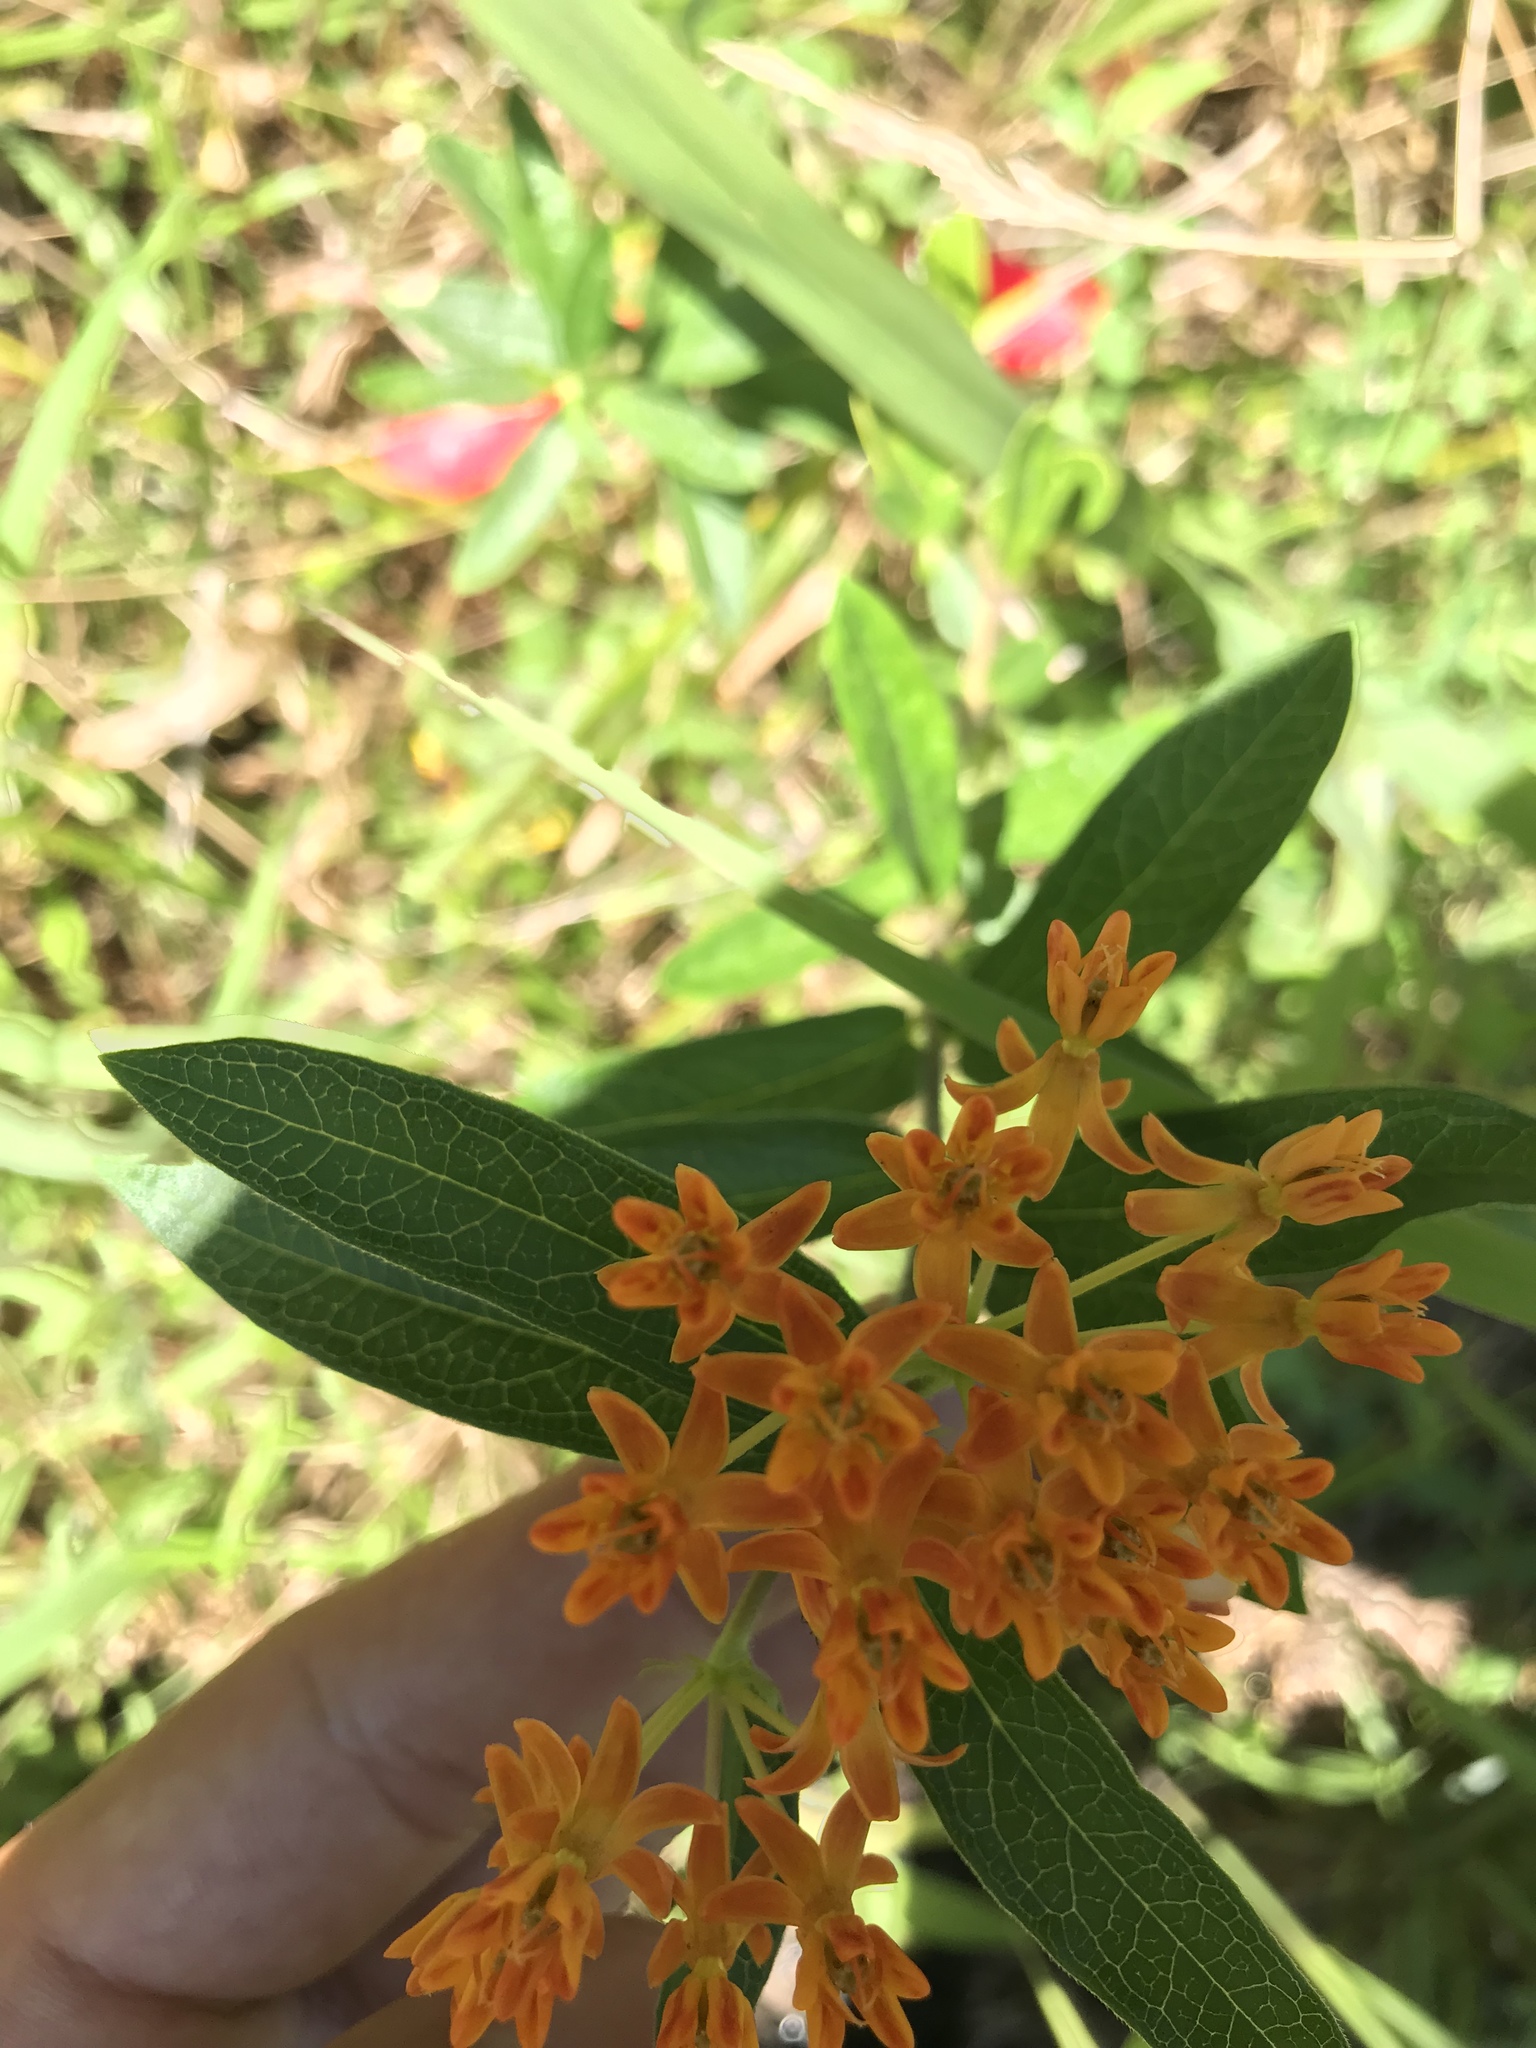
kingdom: Plantae
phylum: Tracheophyta
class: Magnoliopsida
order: Gentianales
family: Apocynaceae
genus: Asclepias
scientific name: Asclepias tuberosa
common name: Butterfly milkweed
